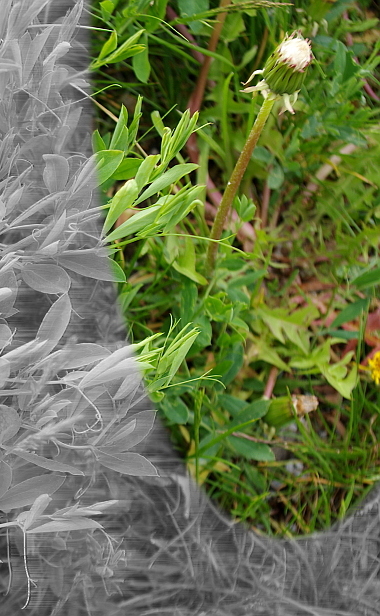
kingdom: Plantae
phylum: Tracheophyta
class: Magnoliopsida
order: Asterales
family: Asteraceae
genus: Taraxacum
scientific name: Taraxacum officinale
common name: Common dandelion
